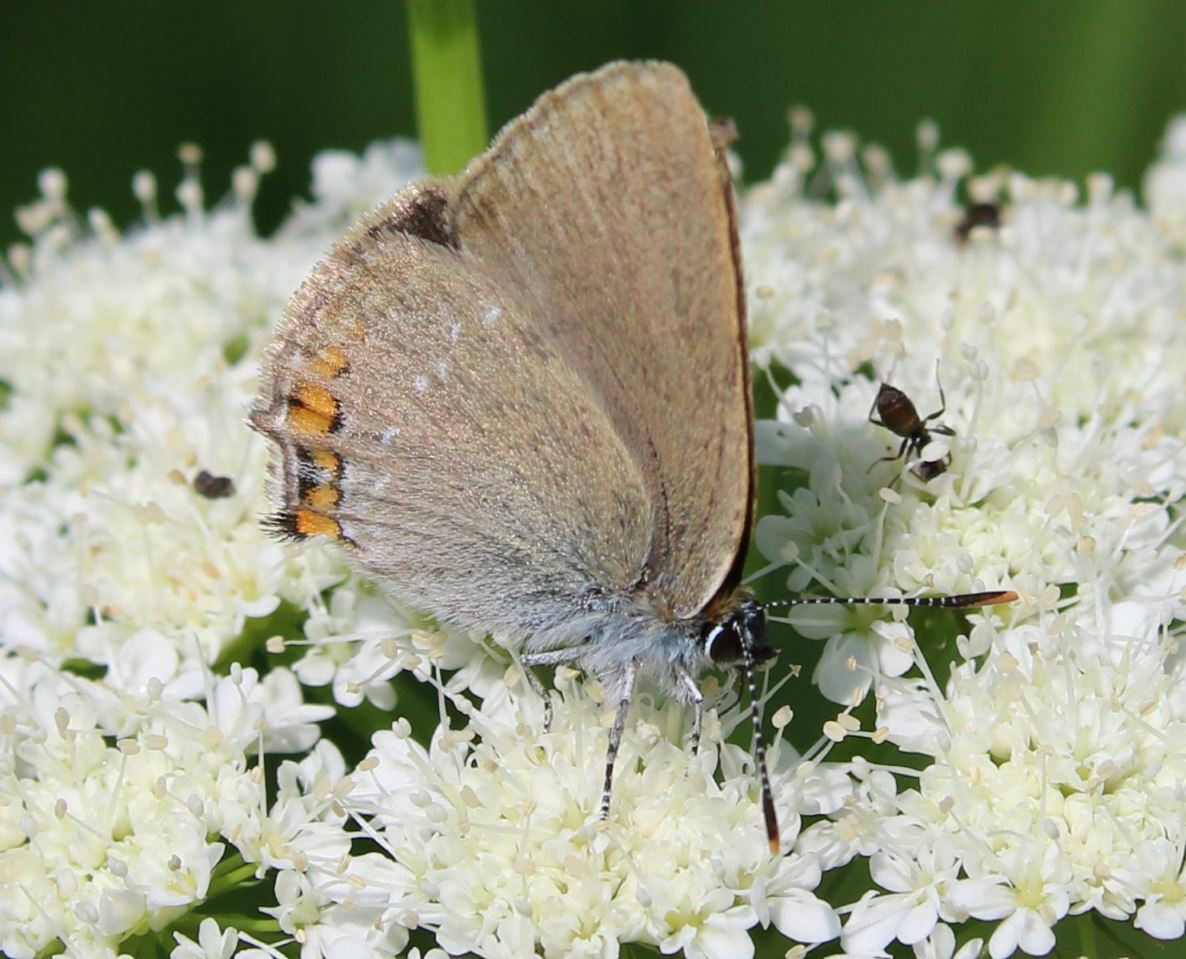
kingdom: Animalia
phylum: Arthropoda
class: Insecta
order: Lepidoptera
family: Lycaenidae
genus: Strymon
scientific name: Strymon acaciae
